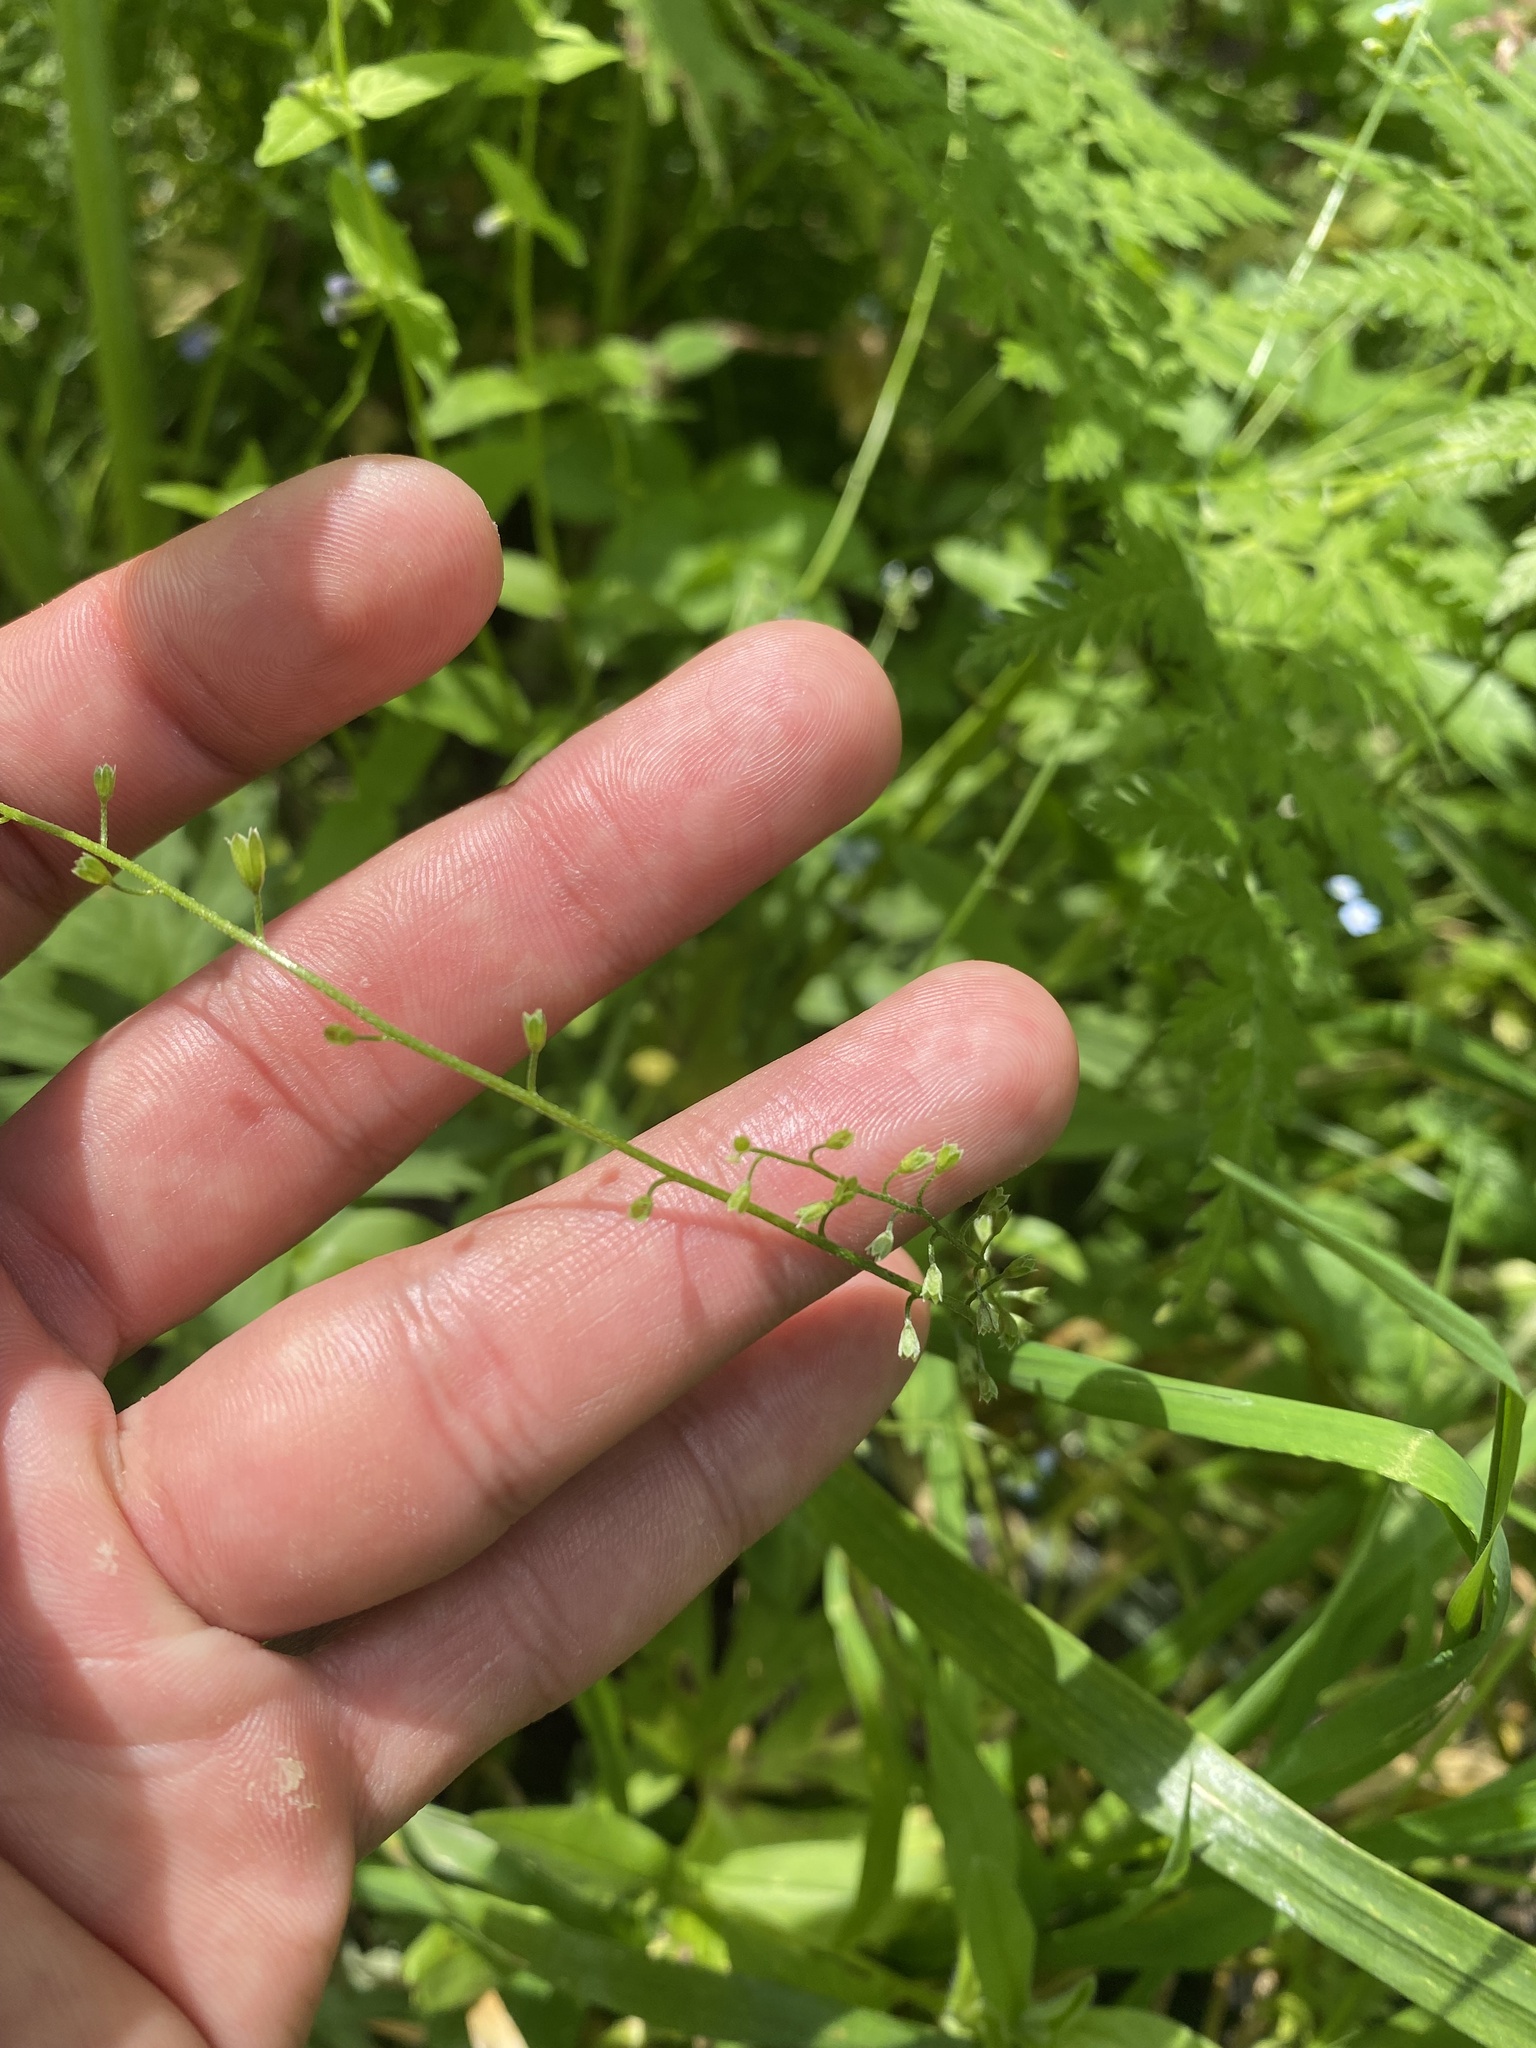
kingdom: Plantae
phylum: Tracheophyta
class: Magnoliopsida
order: Boraginales
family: Boraginaceae
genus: Myosotis
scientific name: Myosotis scorpioides
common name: Water forget-me-not
